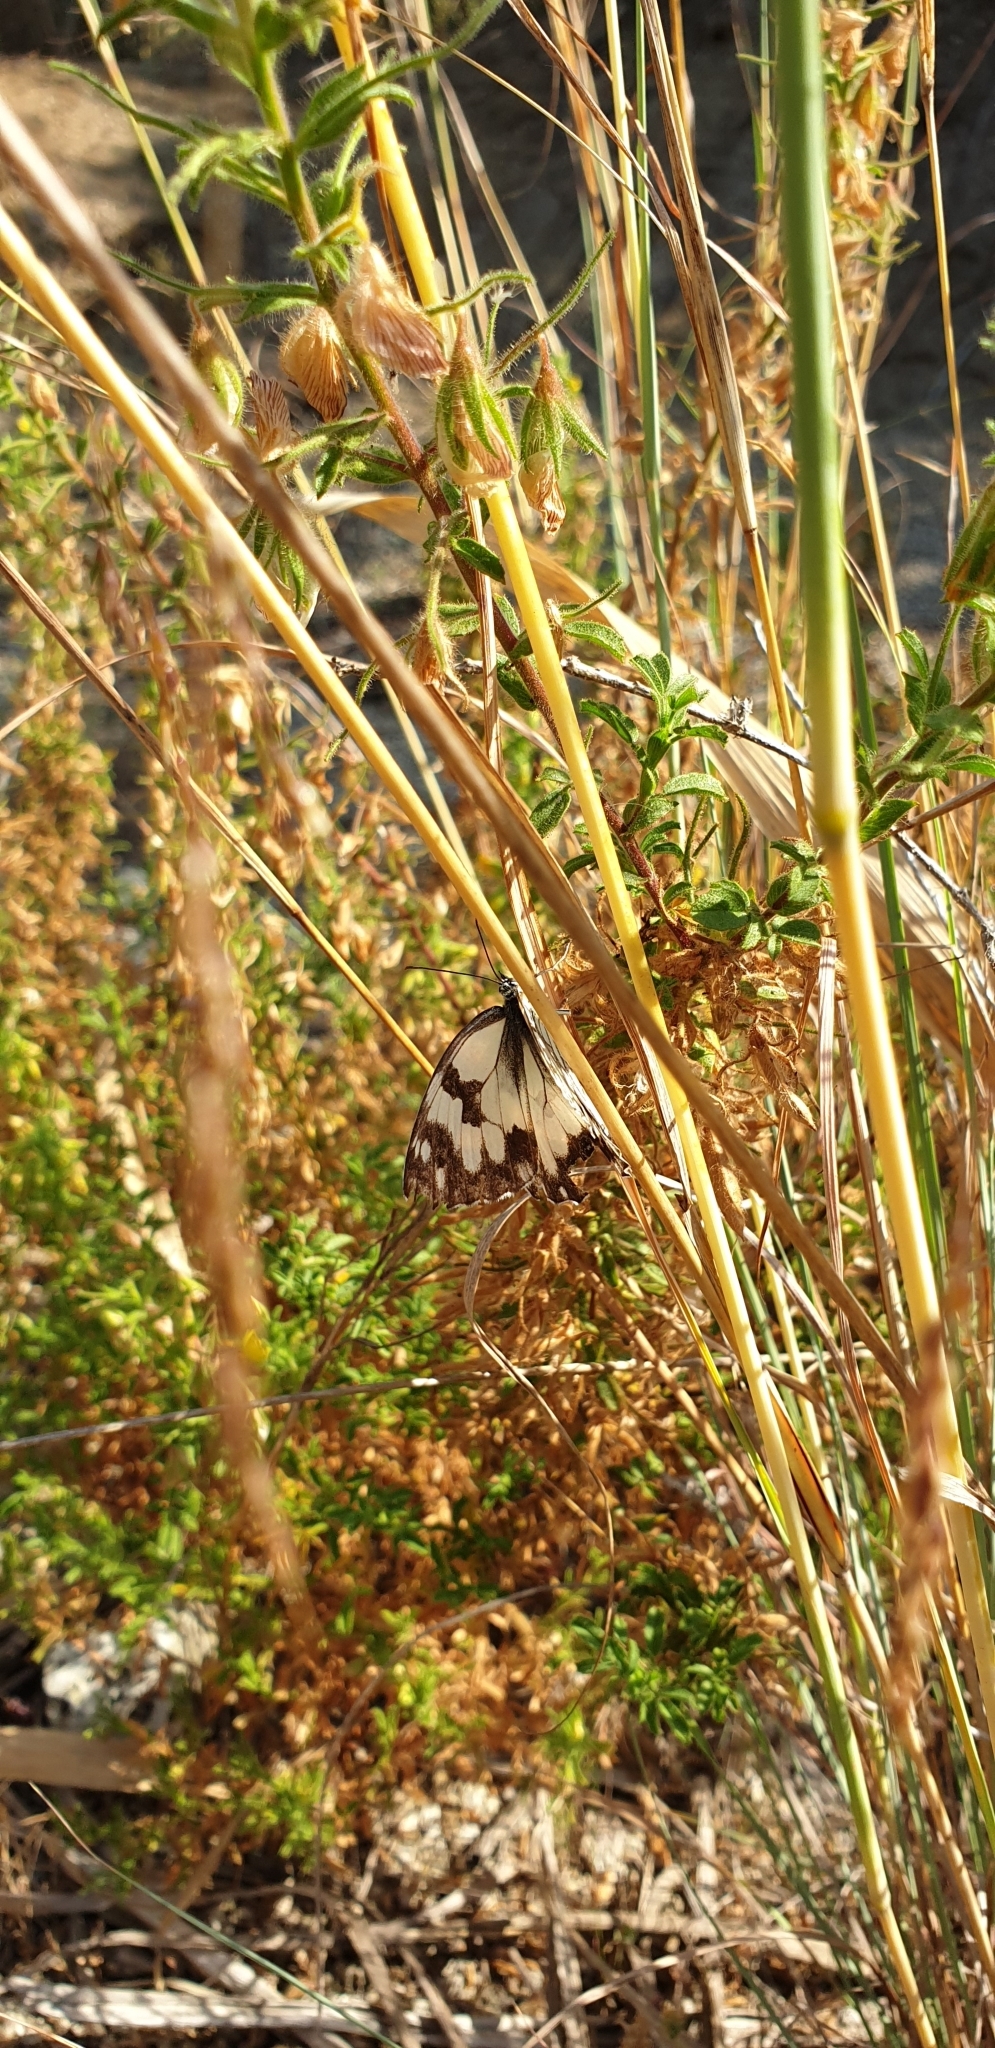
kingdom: Animalia
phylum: Arthropoda
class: Insecta
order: Lepidoptera
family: Nymphalidae
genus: Melanargia
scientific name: Melanargia lachesis
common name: Iberian marbled white
